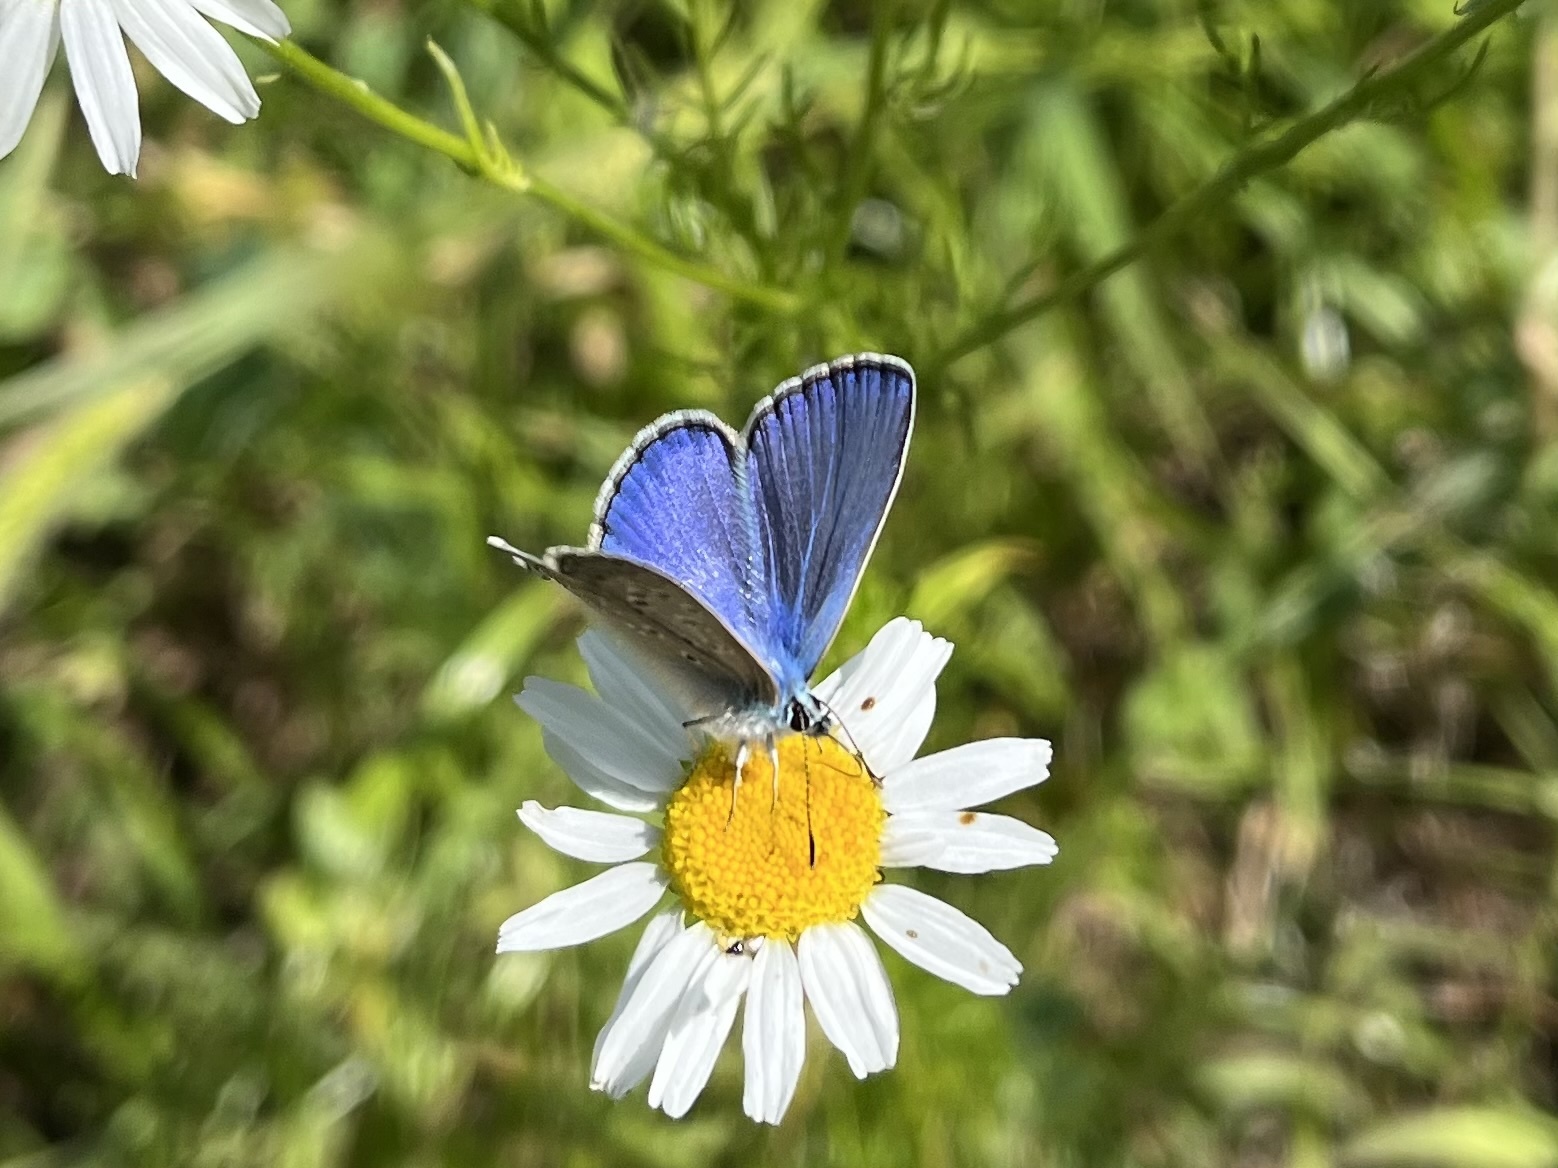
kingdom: Animalia
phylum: Arthropoda
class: Insecta
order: Lepidoptera
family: Lycaenidae
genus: Polyommatus
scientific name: Polyommatus icarus
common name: Common blue
